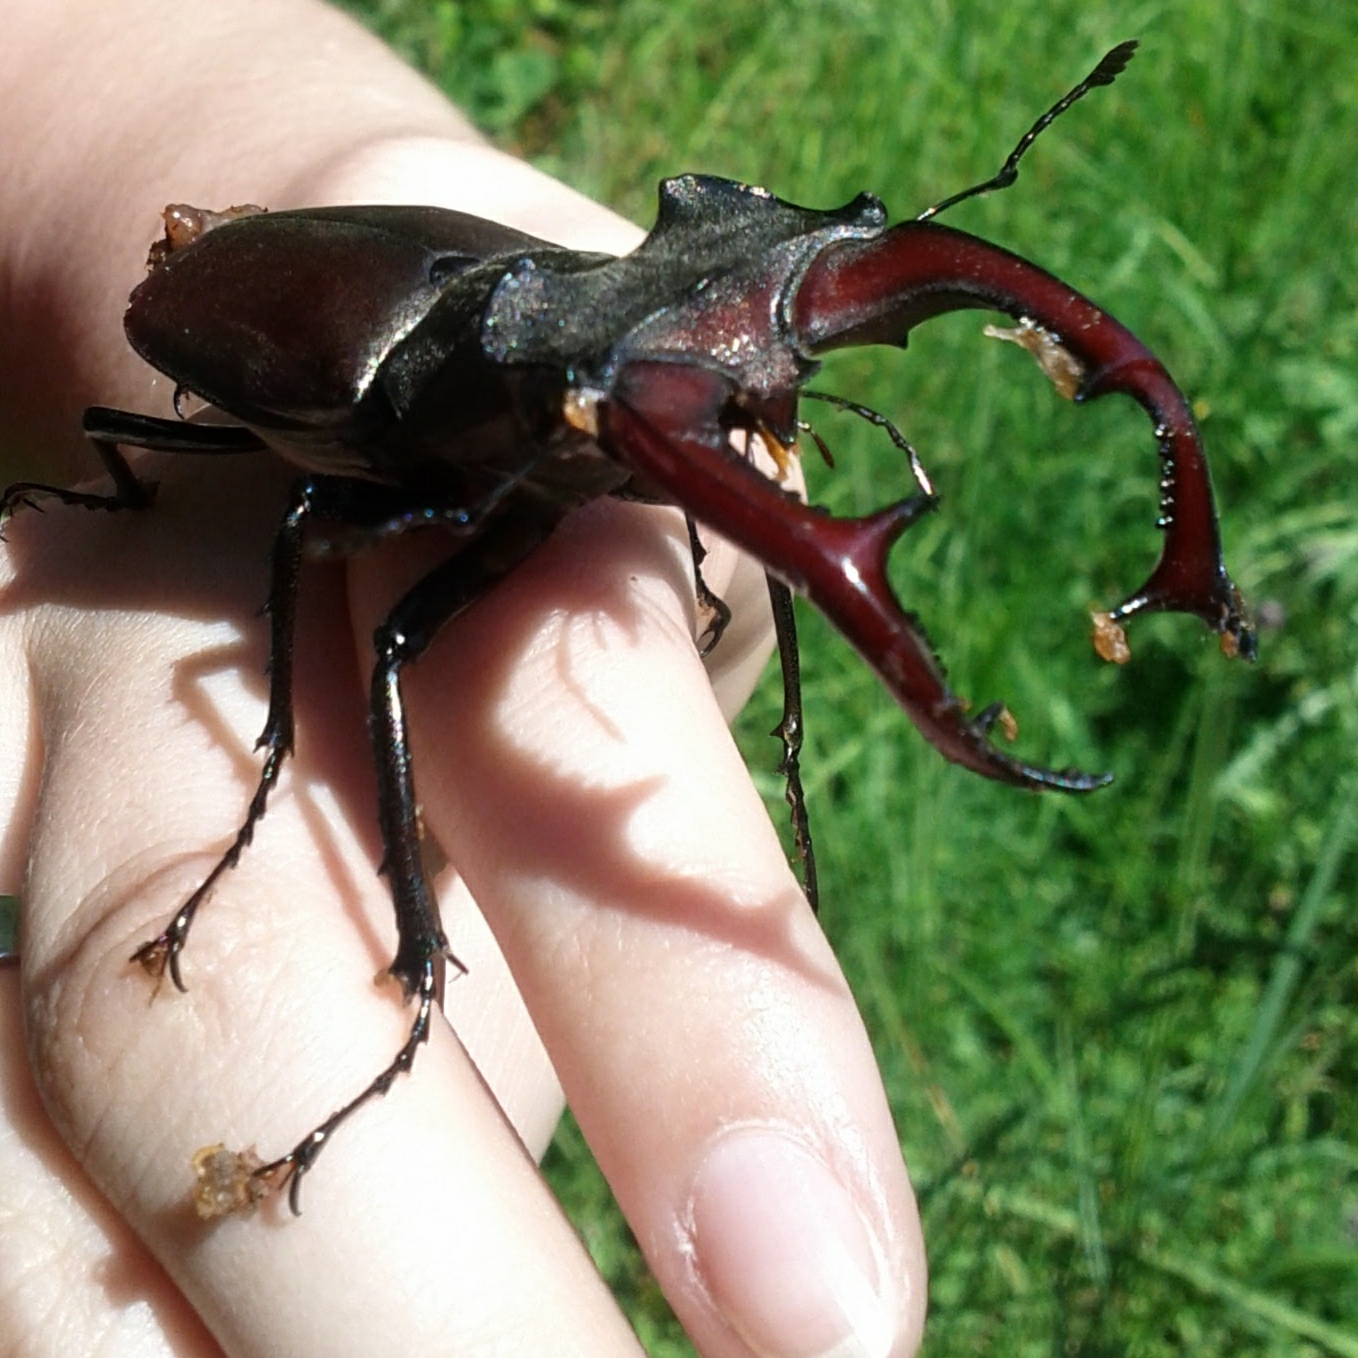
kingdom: Animalia
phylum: Arthropoda
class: Insecta
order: Coleoptera
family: Lucanidae
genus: Lucanus
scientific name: Lucanus cervus
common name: Stag beetle
